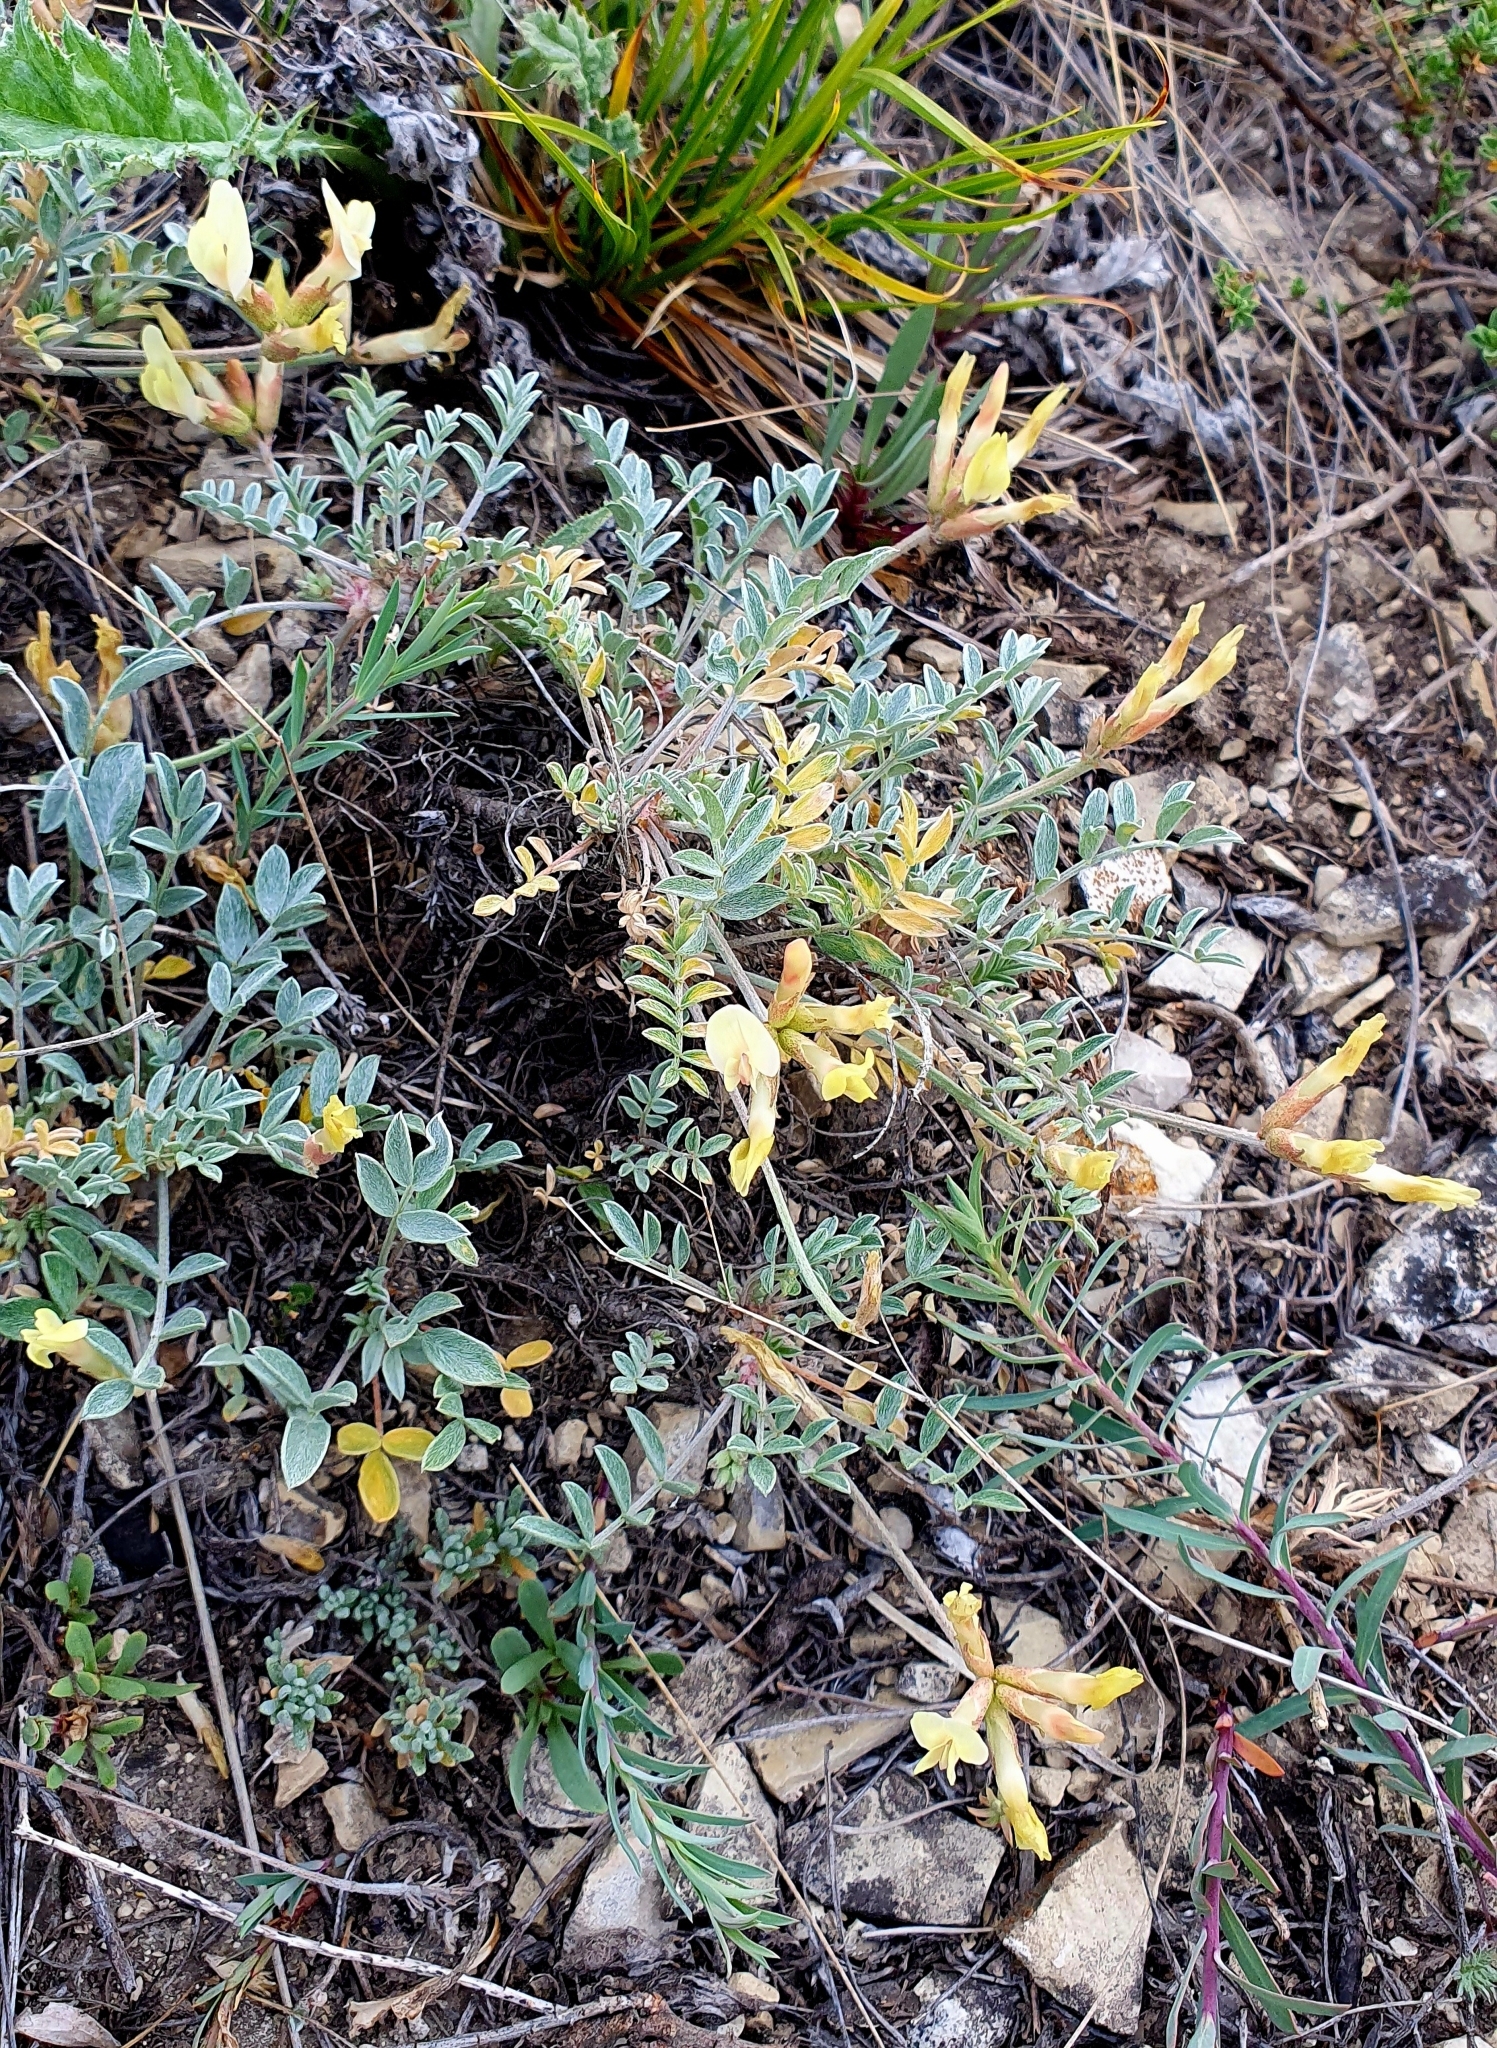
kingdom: Plantae
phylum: Tracheophyta
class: Magnoliopsida
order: Fabales
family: Fabaceae
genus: Astragalus
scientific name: Astragalus helmii
